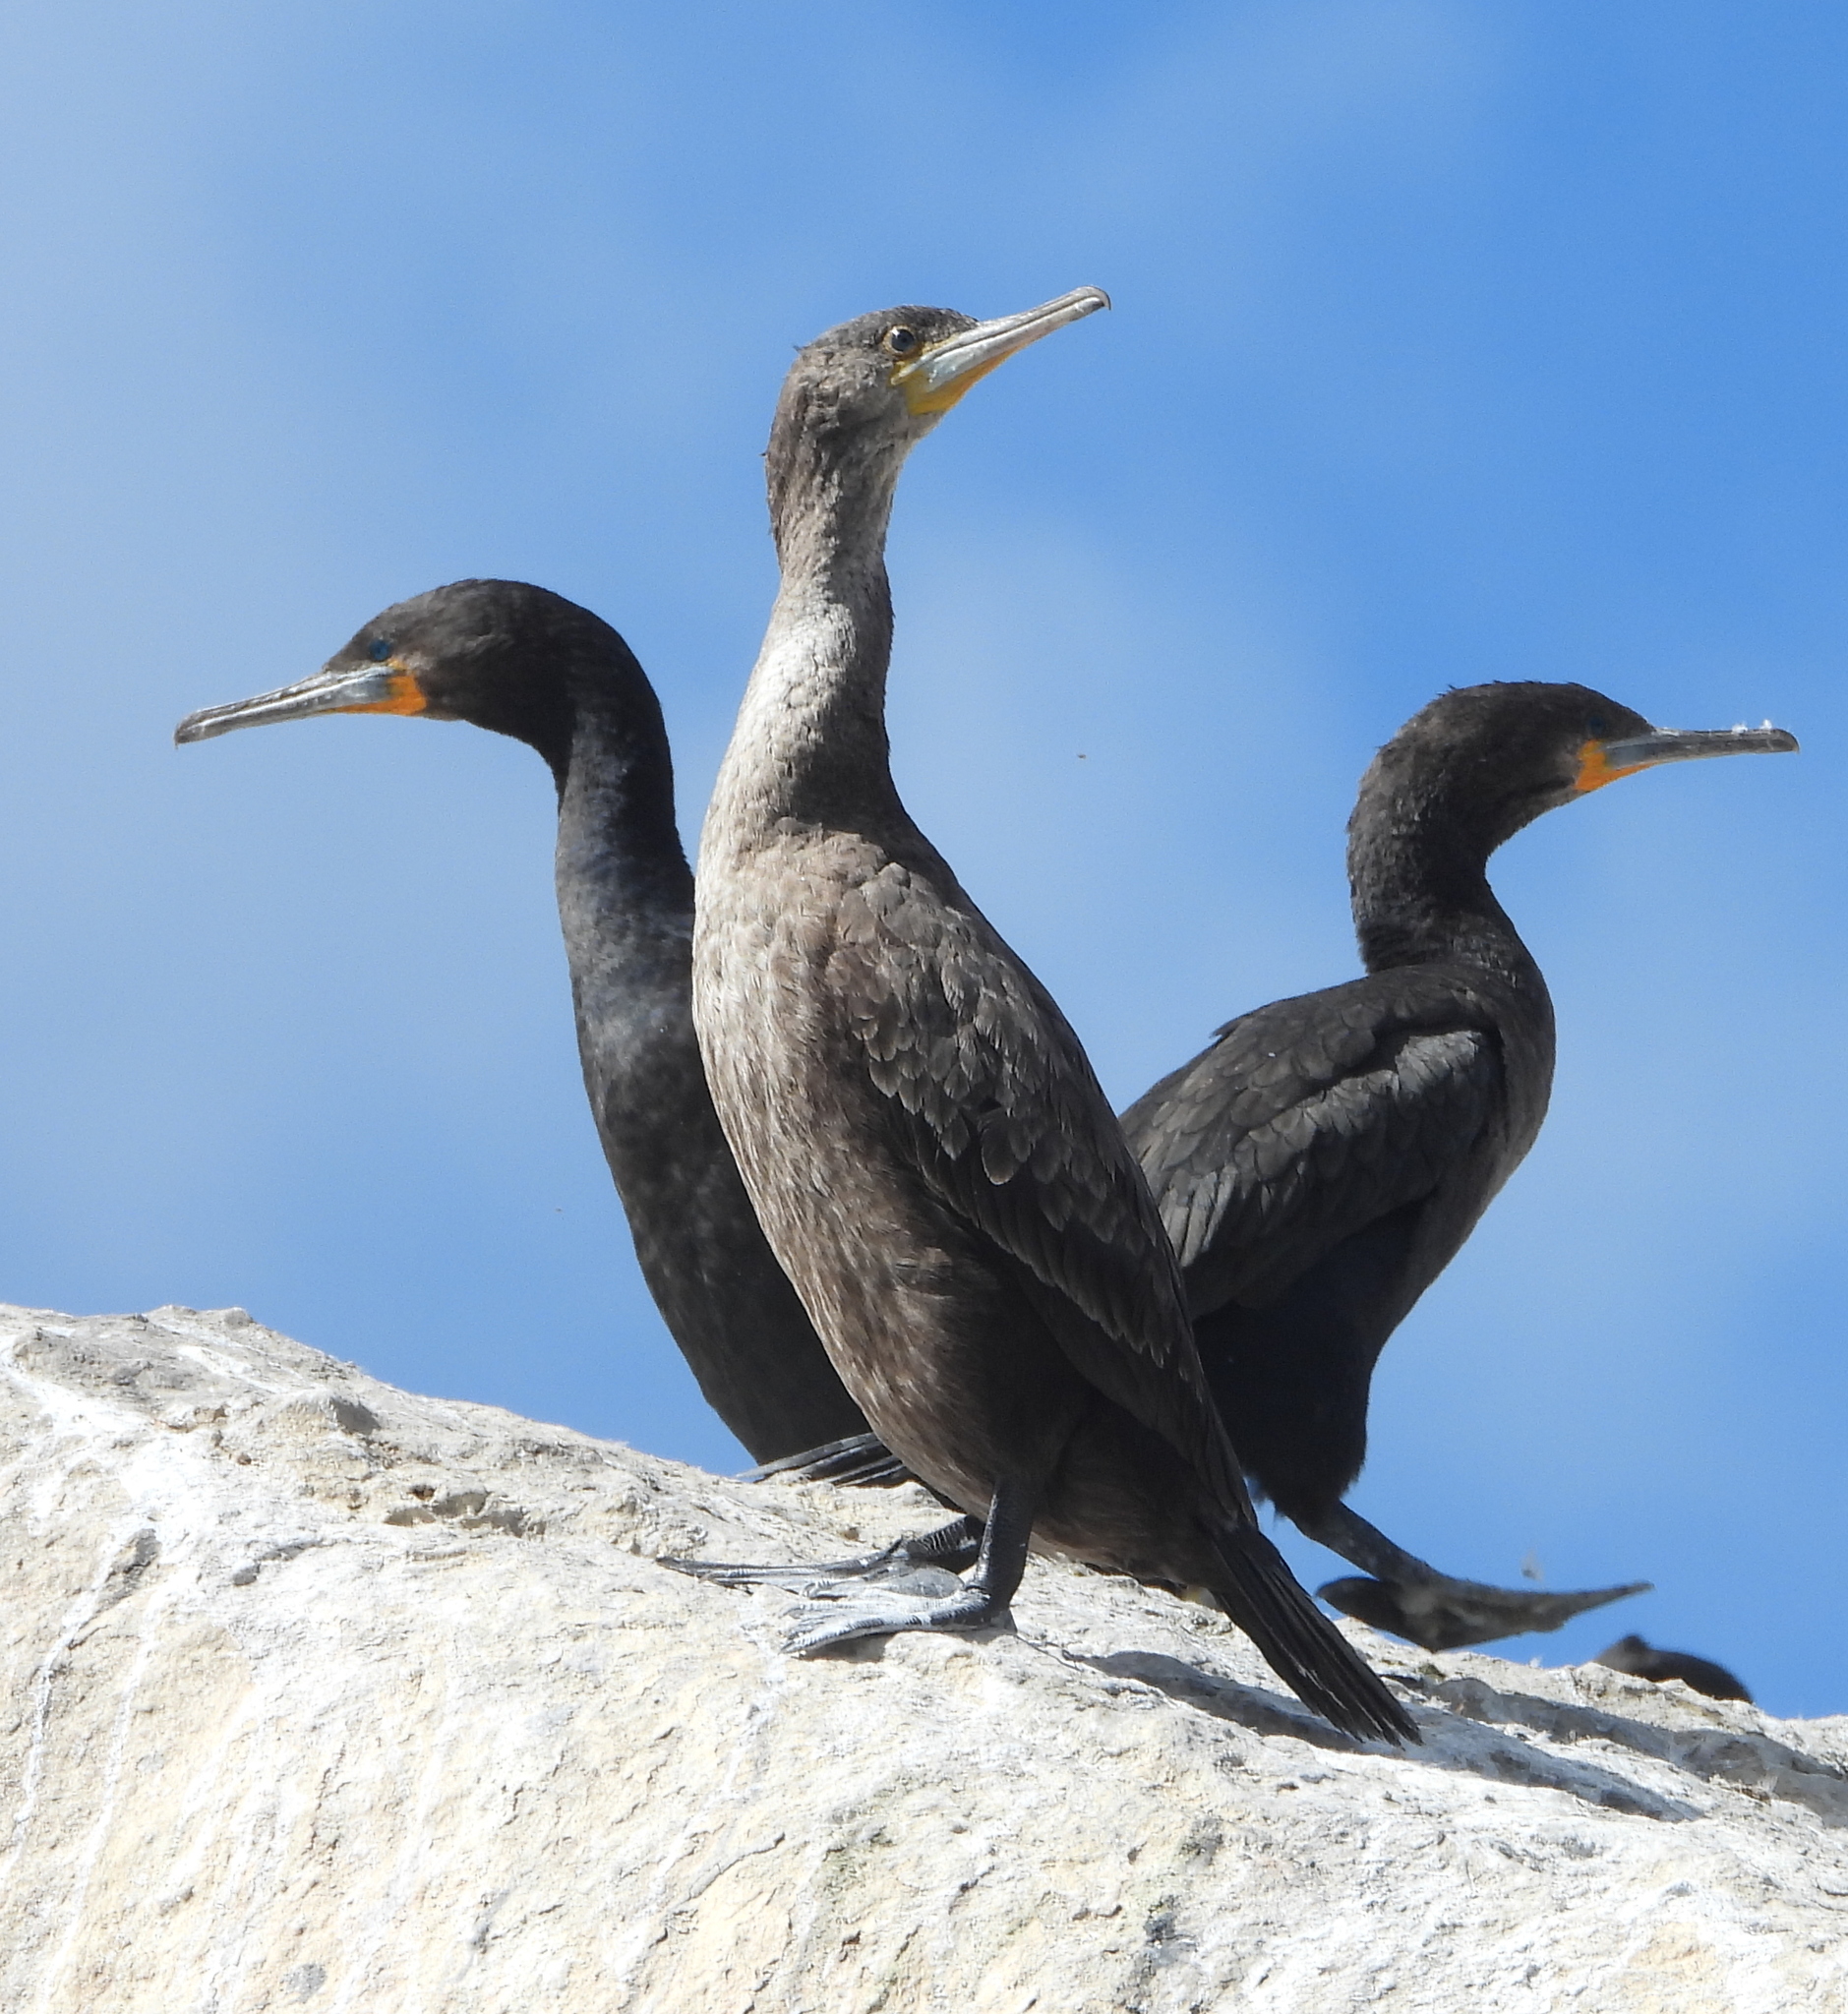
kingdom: Animalia
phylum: Chordata
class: Aves
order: Suliformes
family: Phalacrocoracidae
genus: Phalacrocorax
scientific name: Phalacrocorax capensis
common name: Cape cormorant
